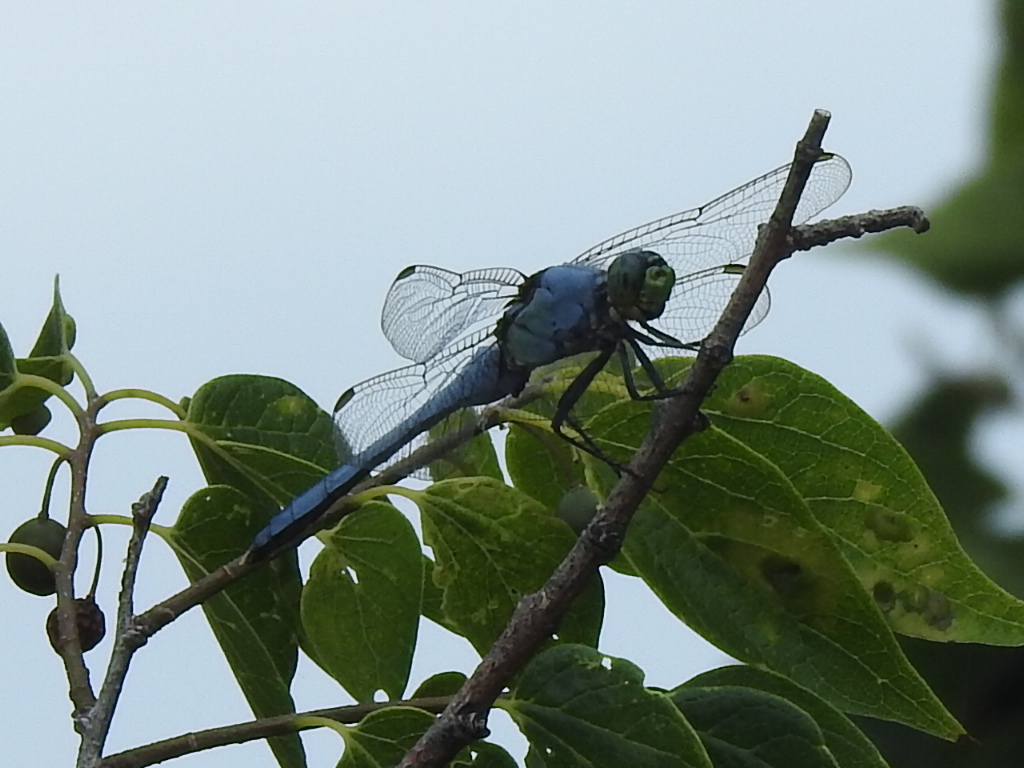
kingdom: Animalia
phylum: Arthropoda
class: Insecta
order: Odonata
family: Libellulidae
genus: Erythemis
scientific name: Erythemis simplicicollis
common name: Eastern pondhawk
